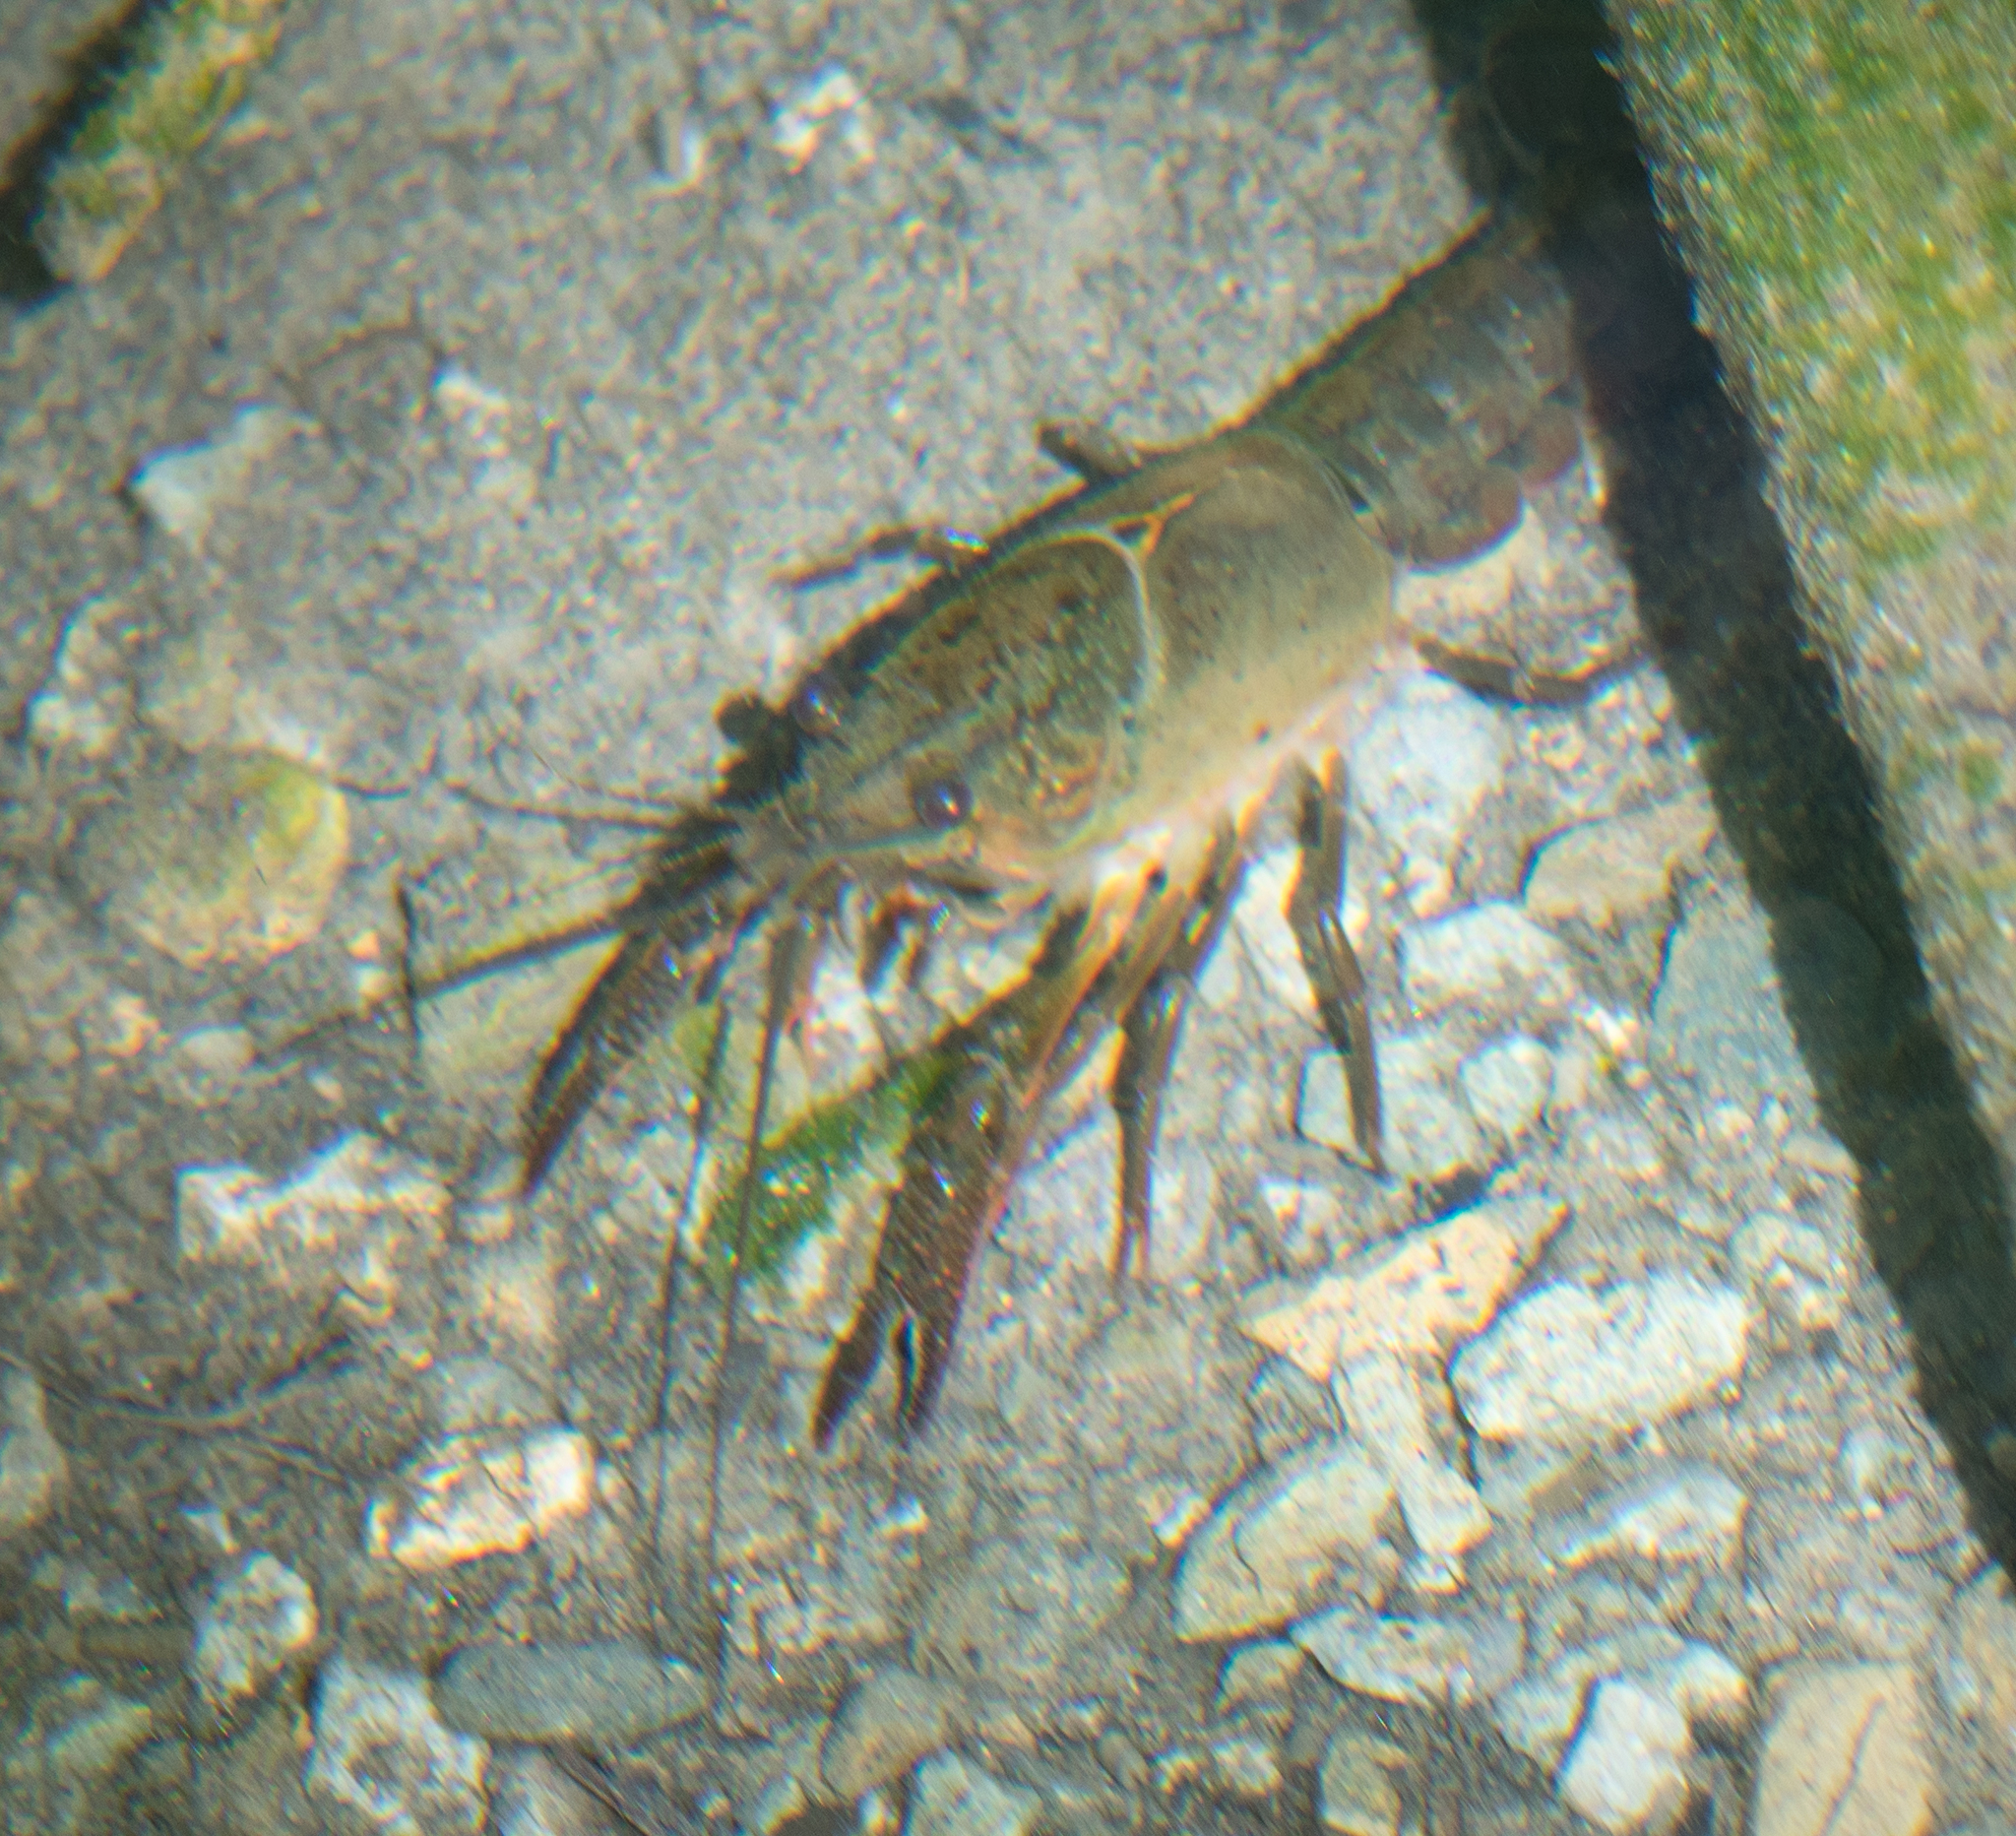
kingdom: Animalia
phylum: Arthropoda
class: Malacostraca
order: Decapoda
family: Cambaridae
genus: Procambarus
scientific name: Procambarus clarkii
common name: Red swamp crayfish
